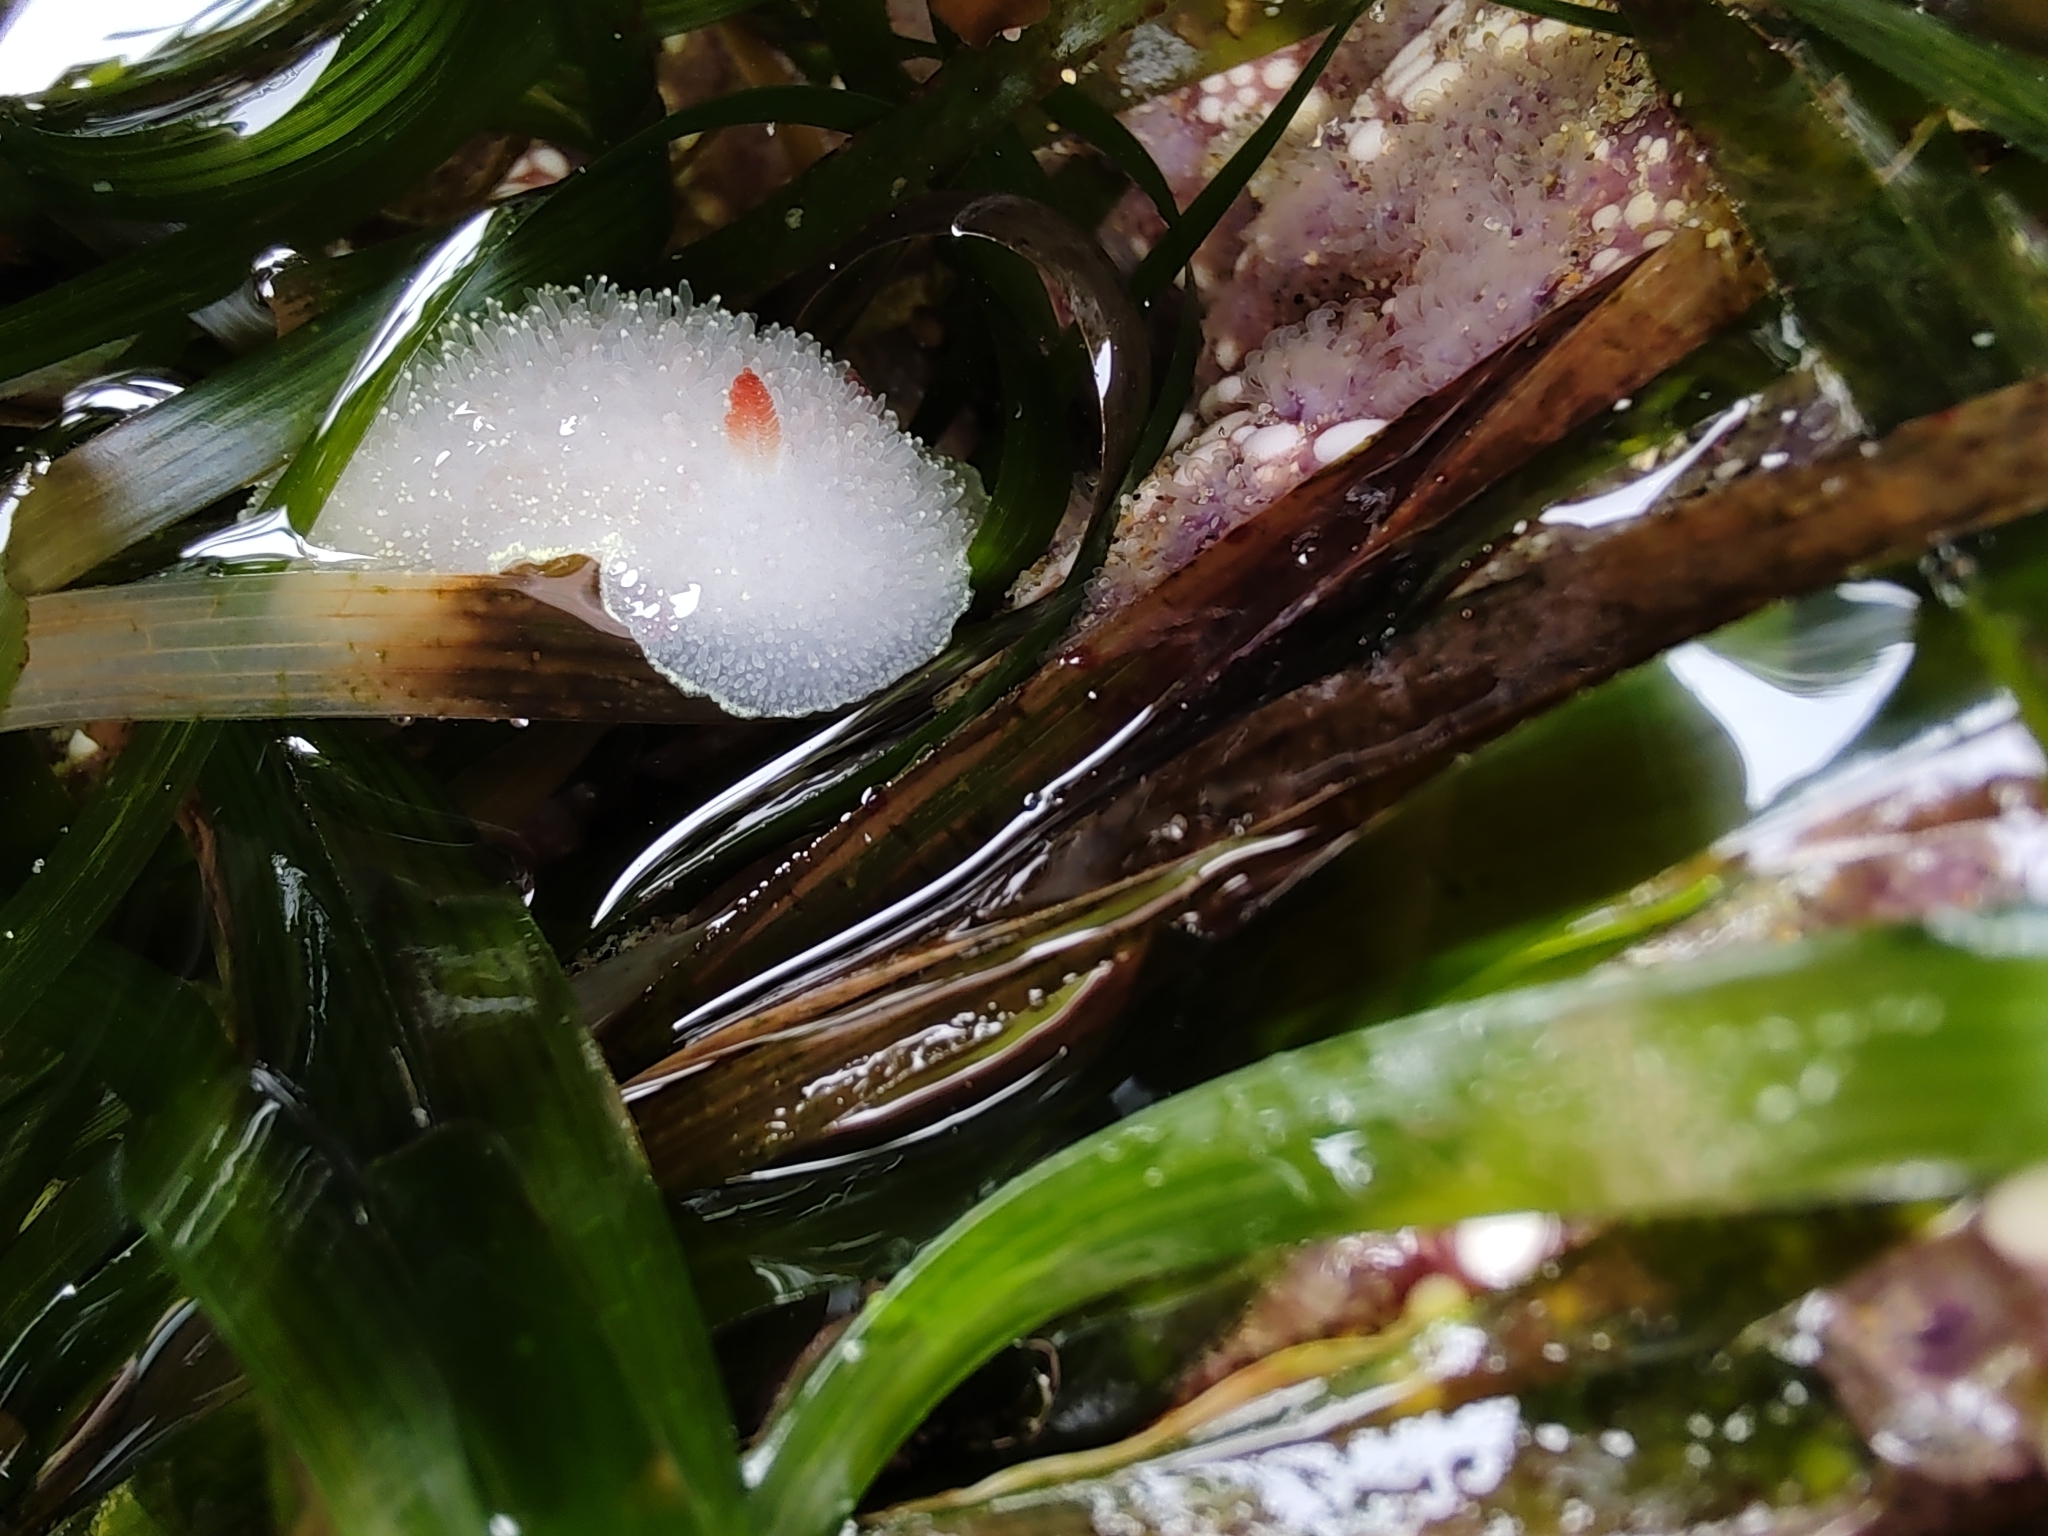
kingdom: Animalia
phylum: Mollusca
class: Gastropoda
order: Nudibranchia
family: Onchidorididae
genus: Acanthodoris
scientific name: Acanthodoris nanaimoensis
